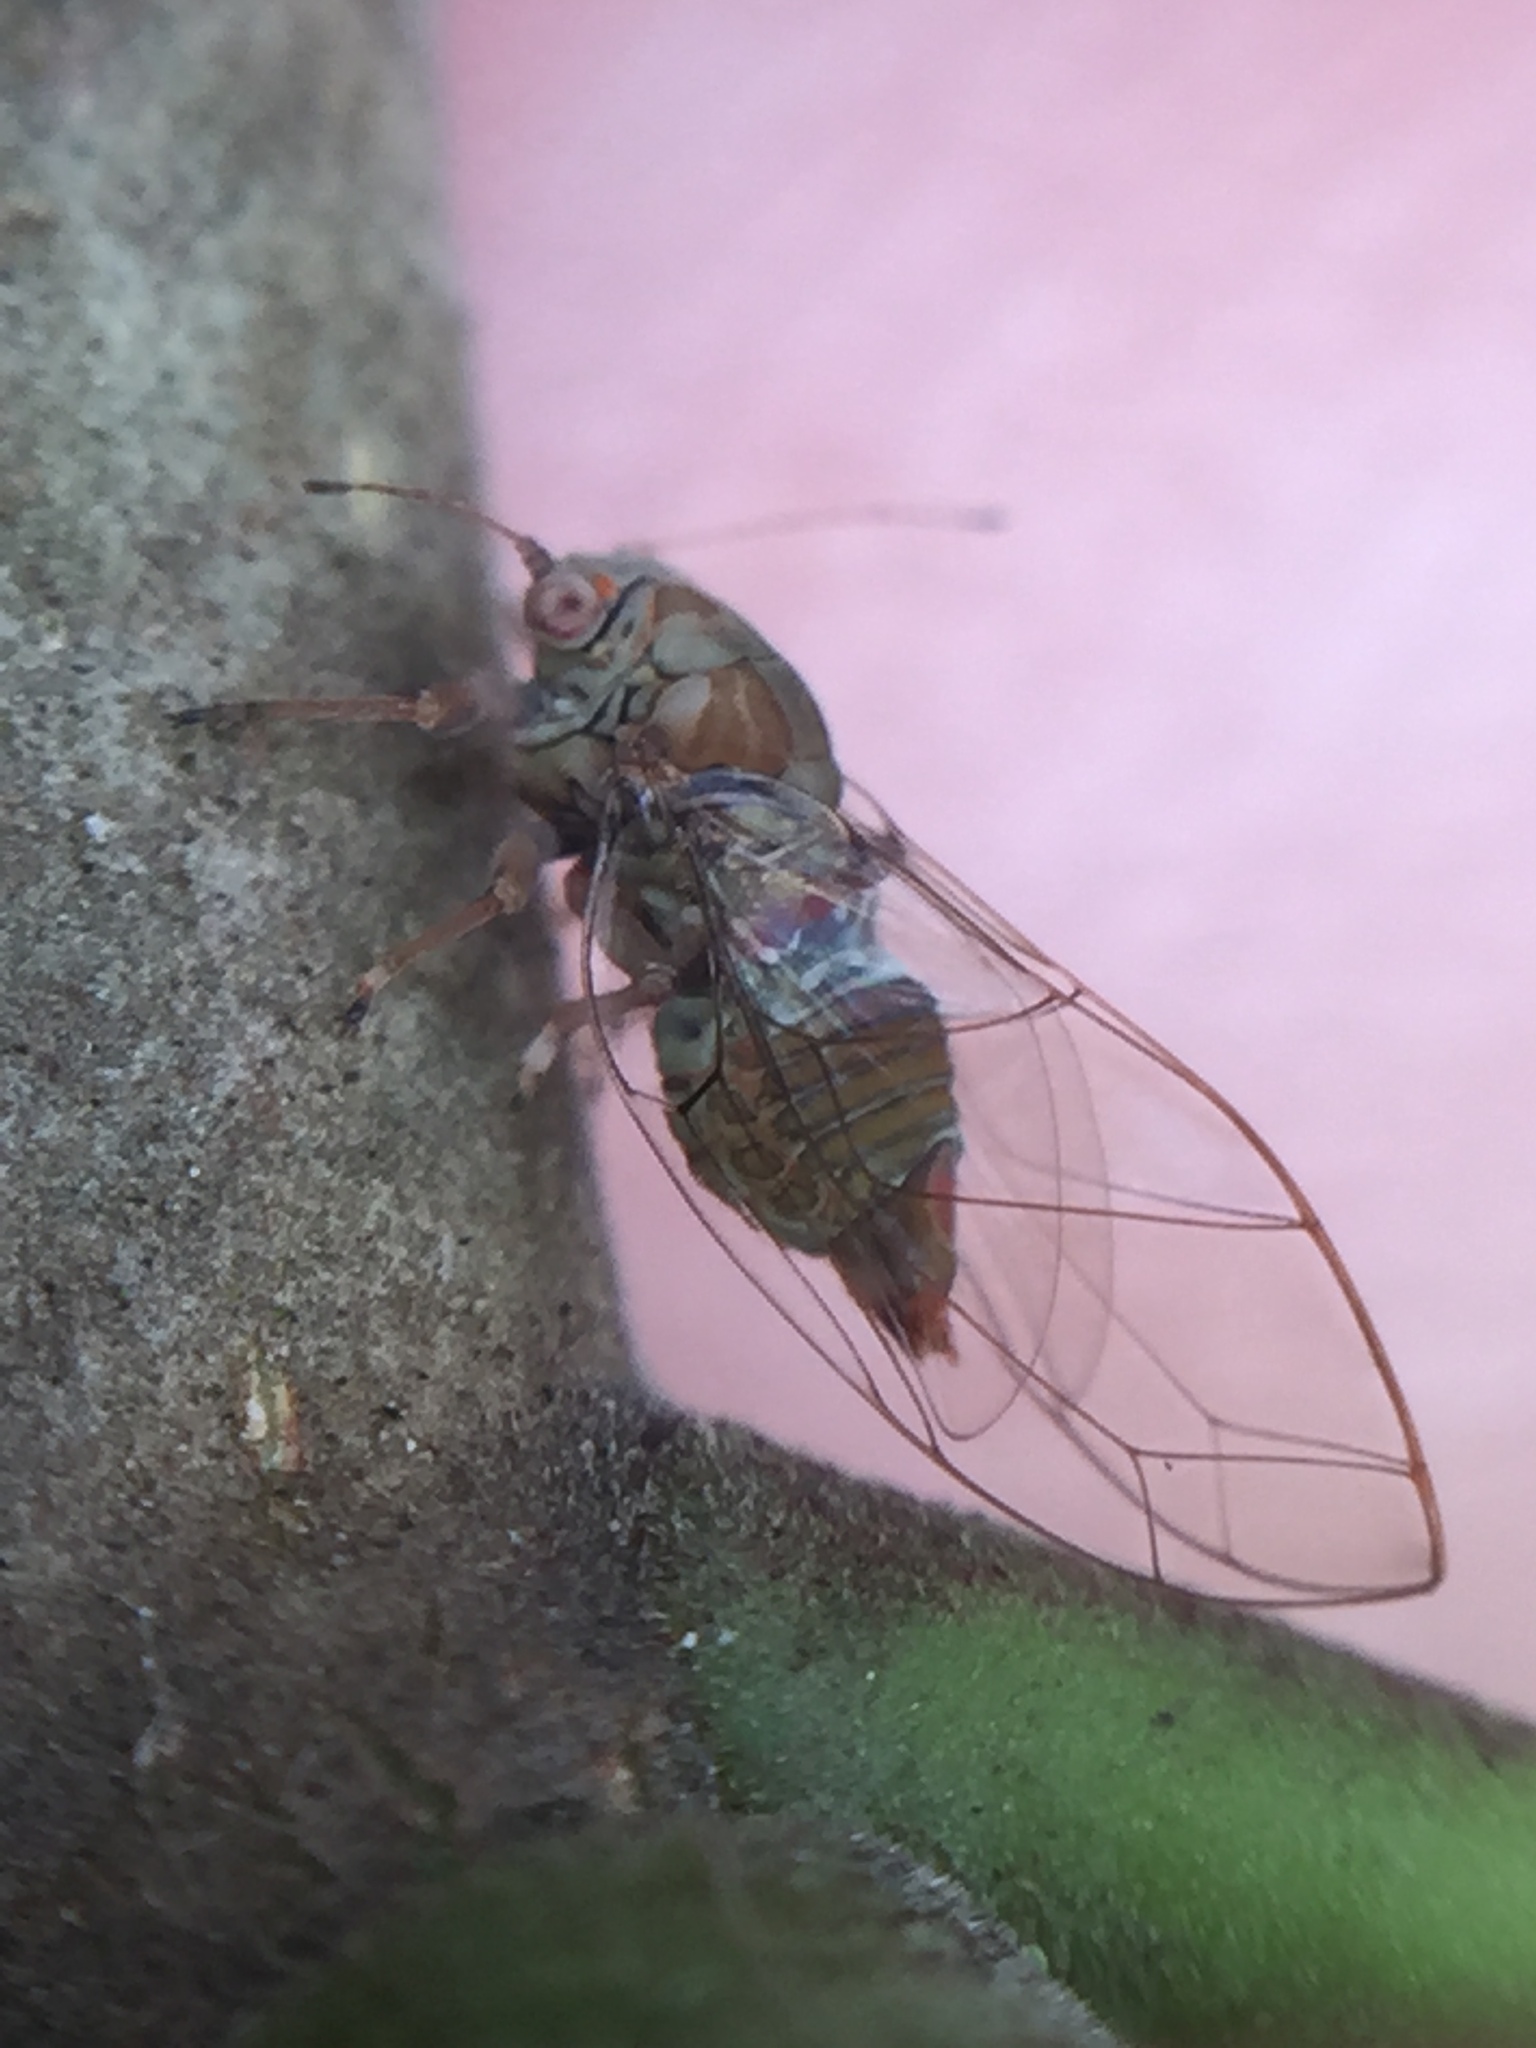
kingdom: Animalia
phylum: Arthropoda
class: Insecta
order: Hemiptera
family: Homotomidae
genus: Mycopsylla
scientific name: Mycopsylla obliqua
